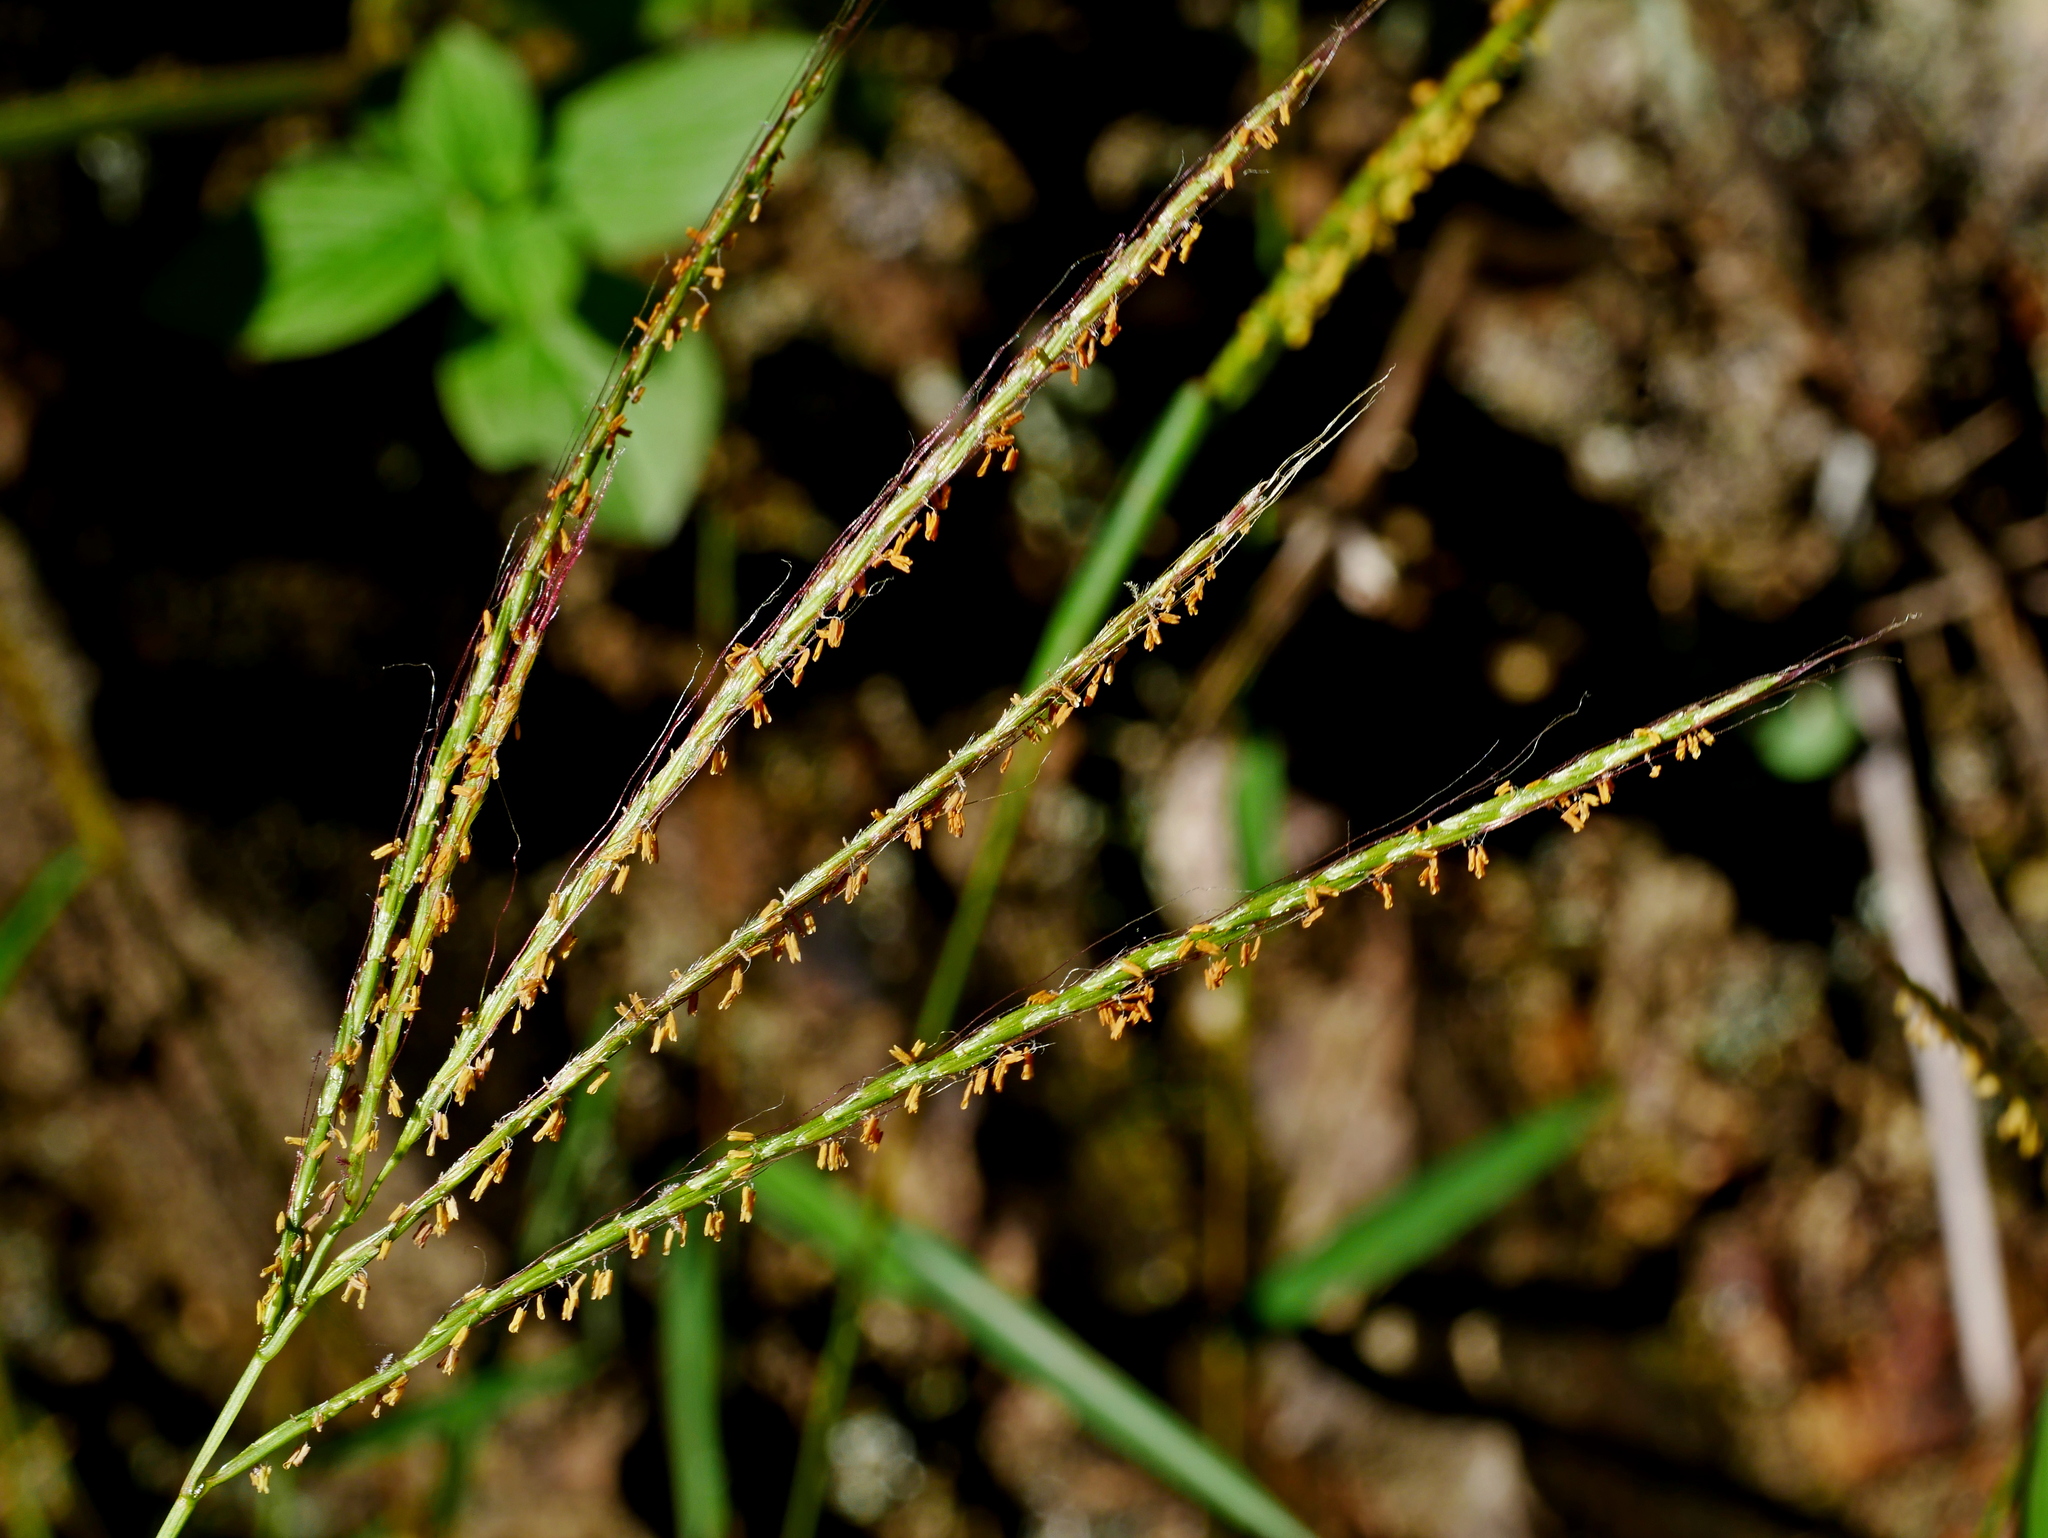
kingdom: Plantae
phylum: Tracheophyta
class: Liliopsida
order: Poales
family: Poaceae
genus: Microstegium
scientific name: Microstegium geniculatum
